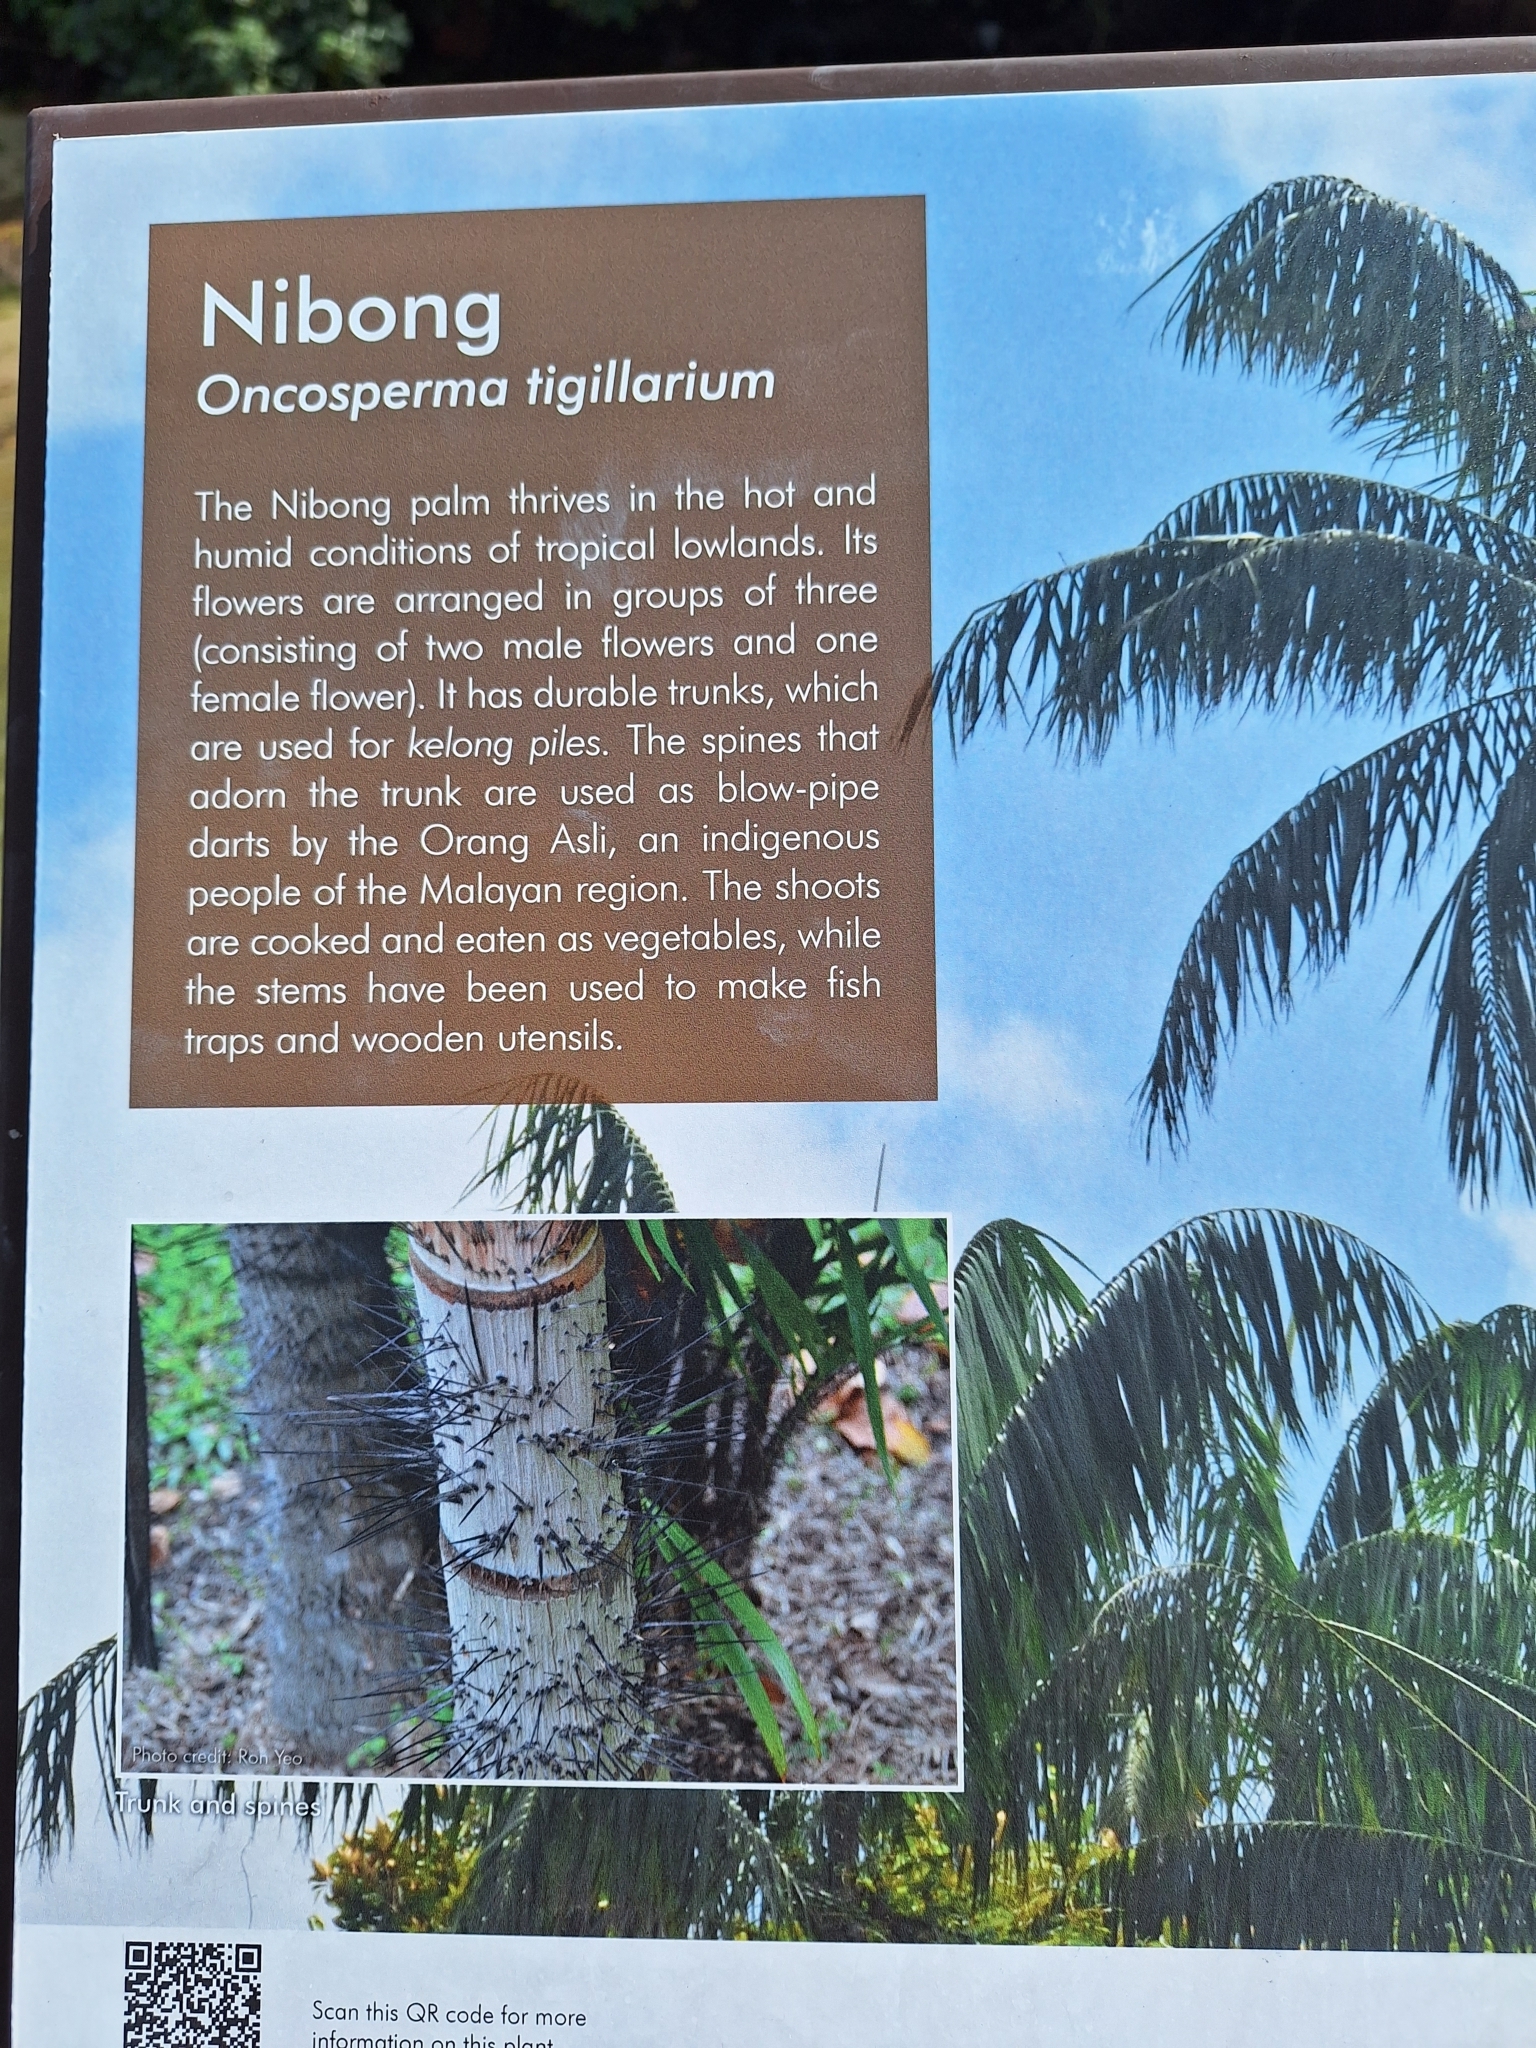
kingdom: Plantae
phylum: Tracheophyta
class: Liliopsida
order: Arecales
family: Arecaceae
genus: Oncosperma
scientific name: Oncosperma tigillarium
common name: Nibong
